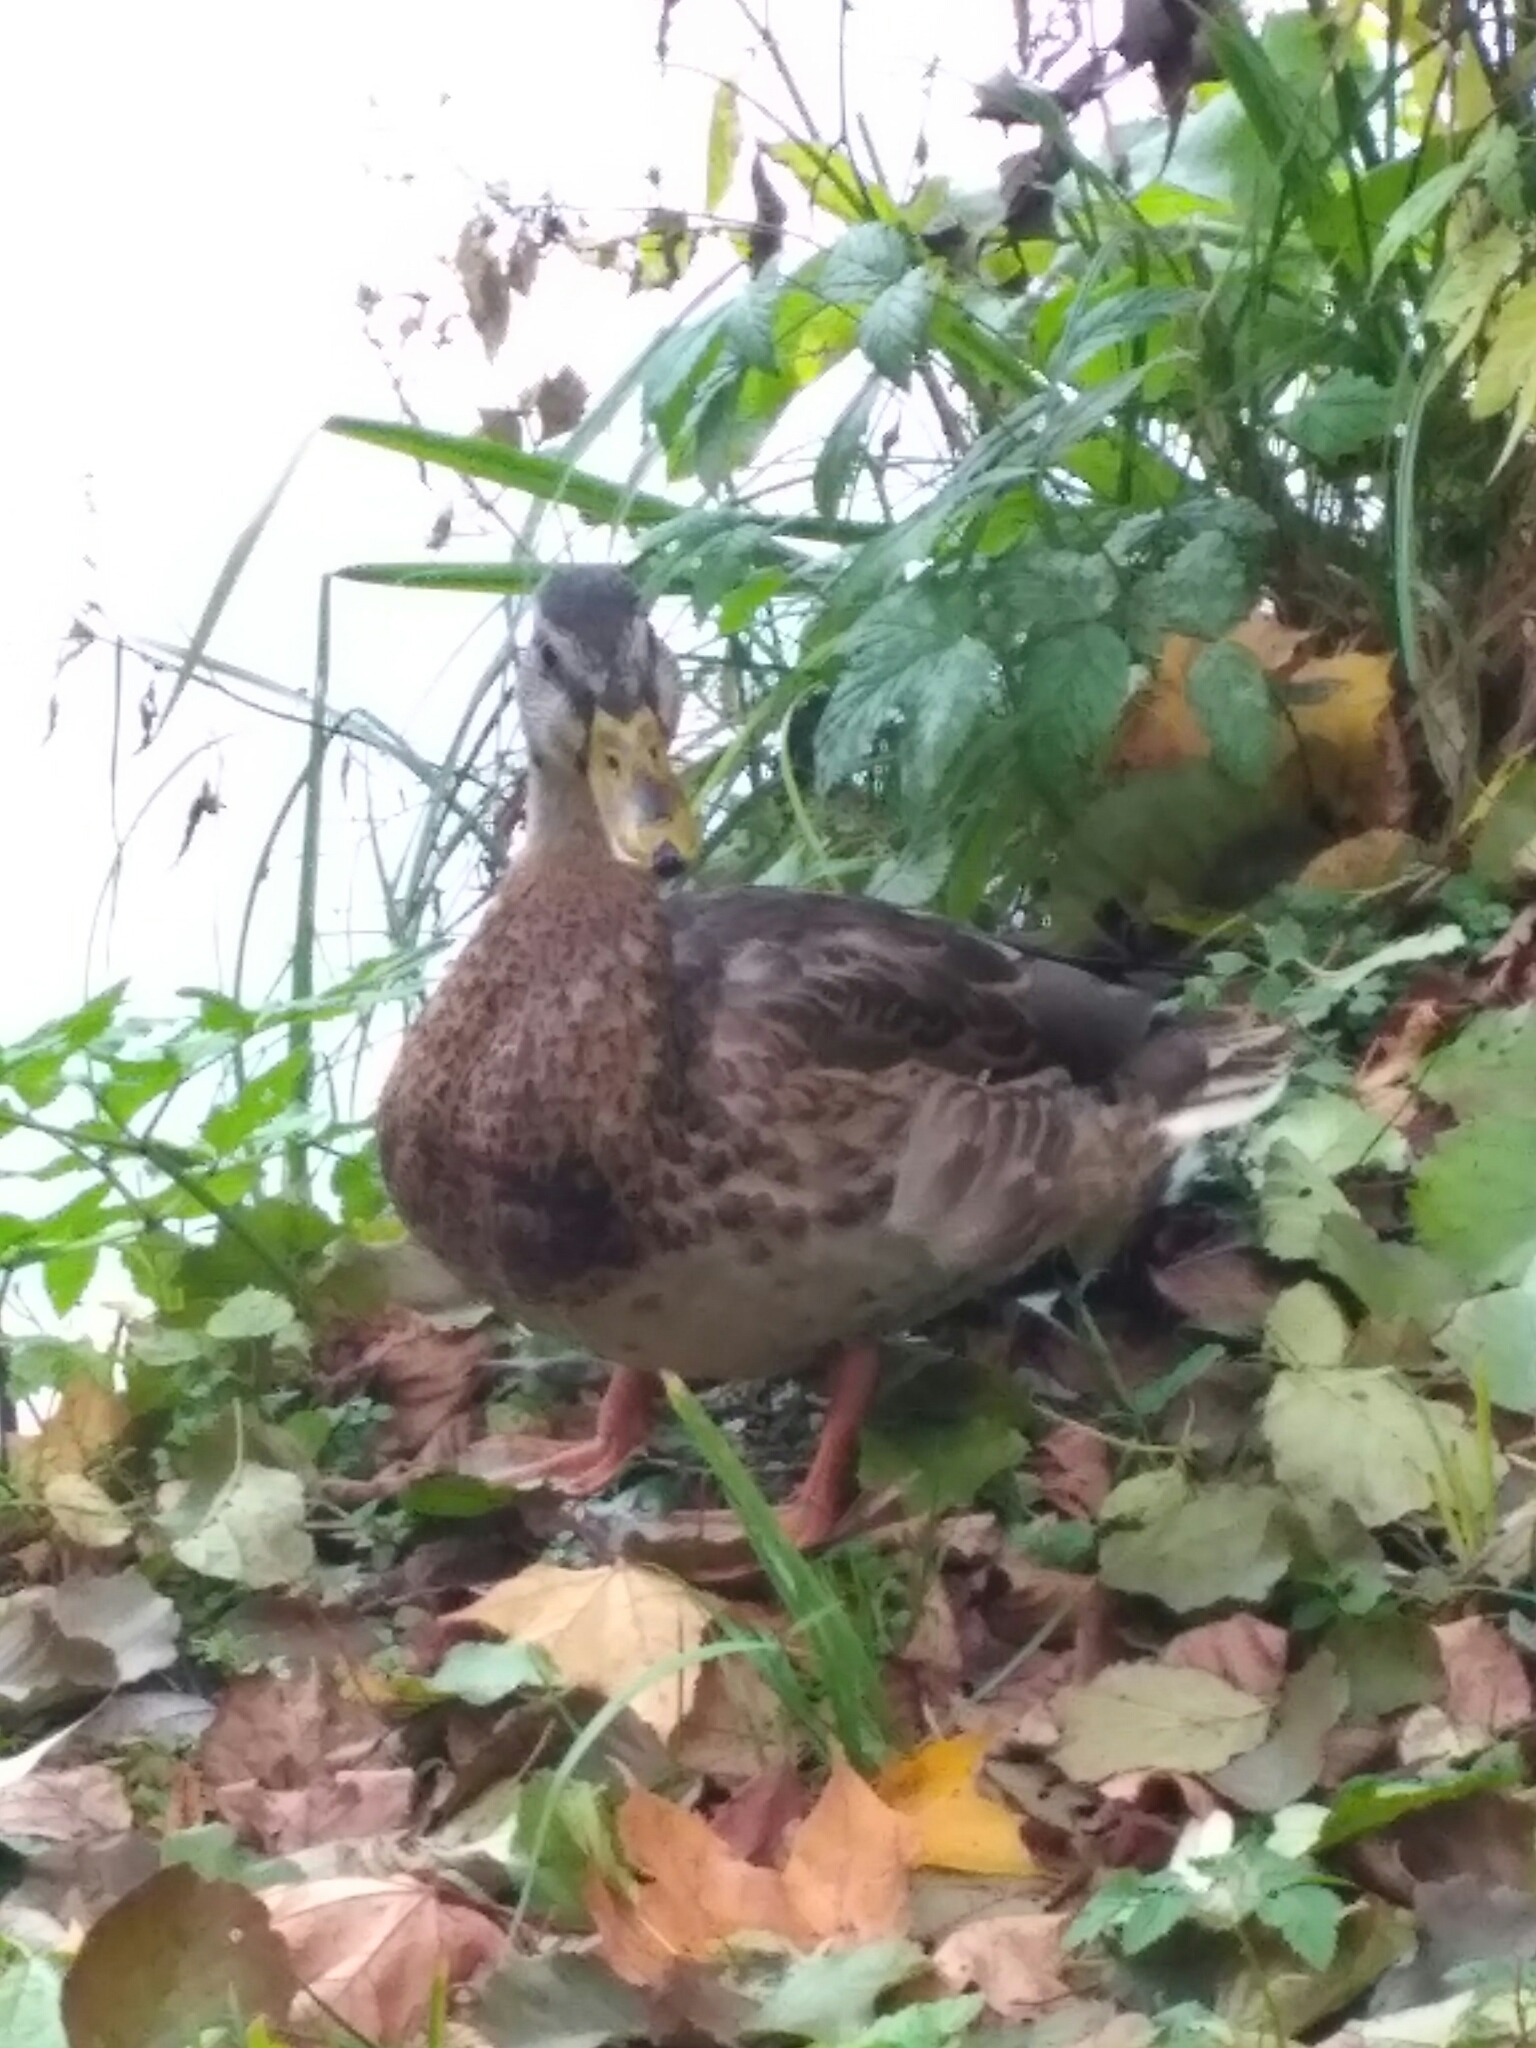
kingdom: Animalia
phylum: Chordata
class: Aves
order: Anseriformes
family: Anatidae
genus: Anas
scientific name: Anas platyrhynchos
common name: Mallard
